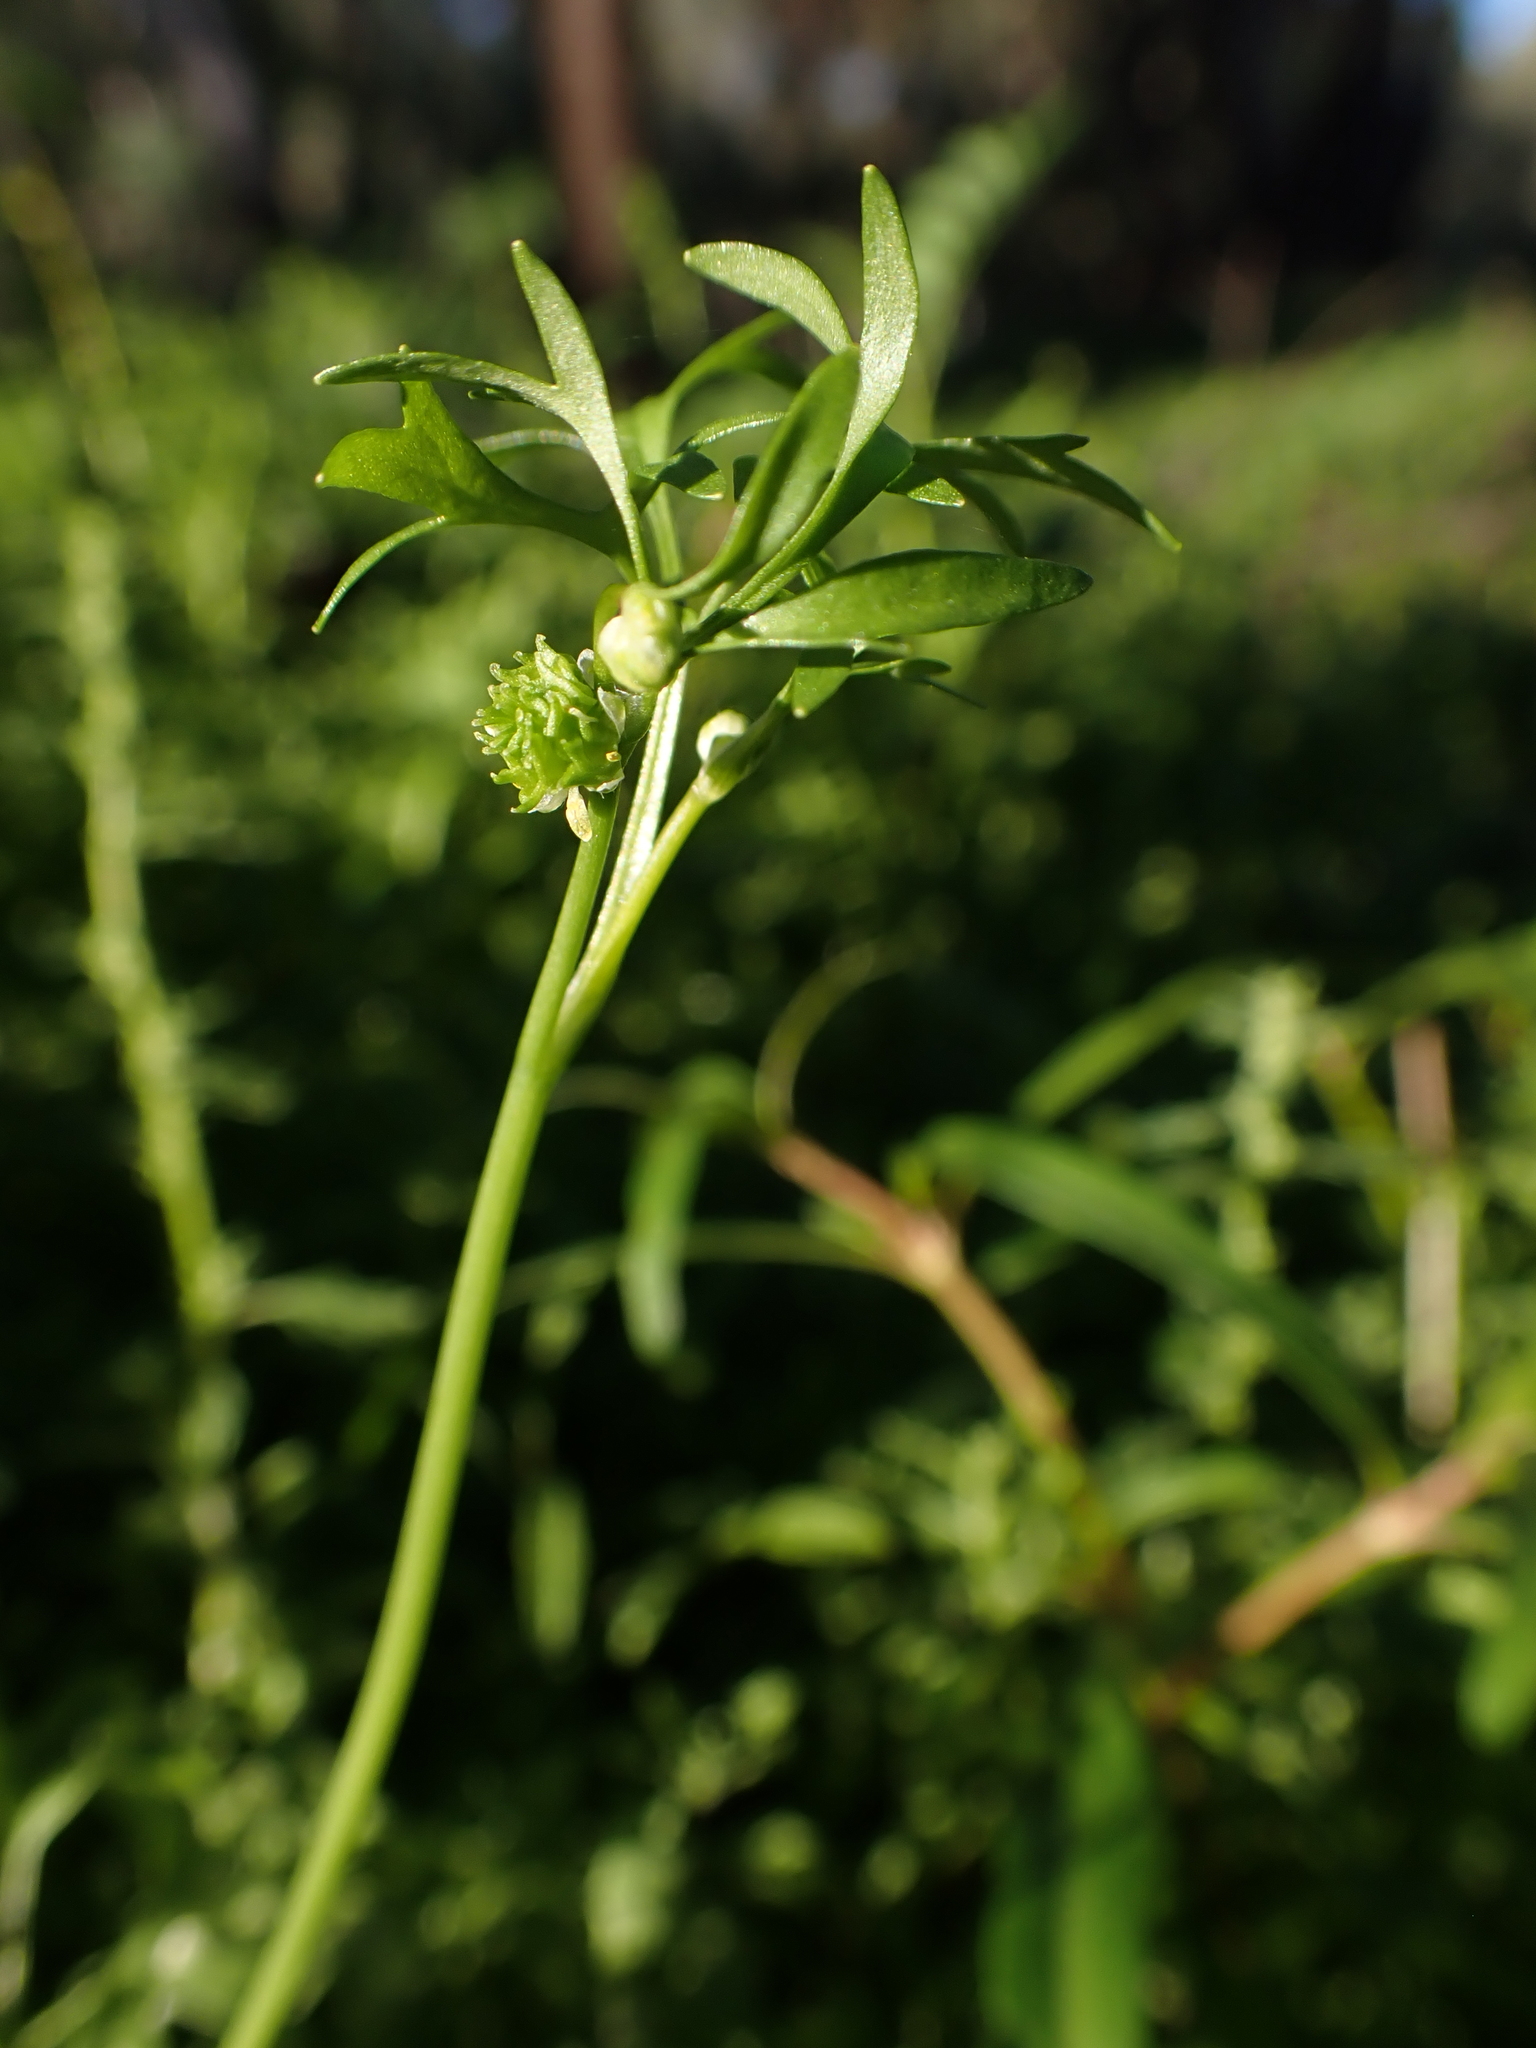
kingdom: Plantae
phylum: Tracheophyta
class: Magnoliopsida
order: Ranunculales
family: Ranunculaceae
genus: Ranunculus
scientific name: Ranunculus pentandrus
